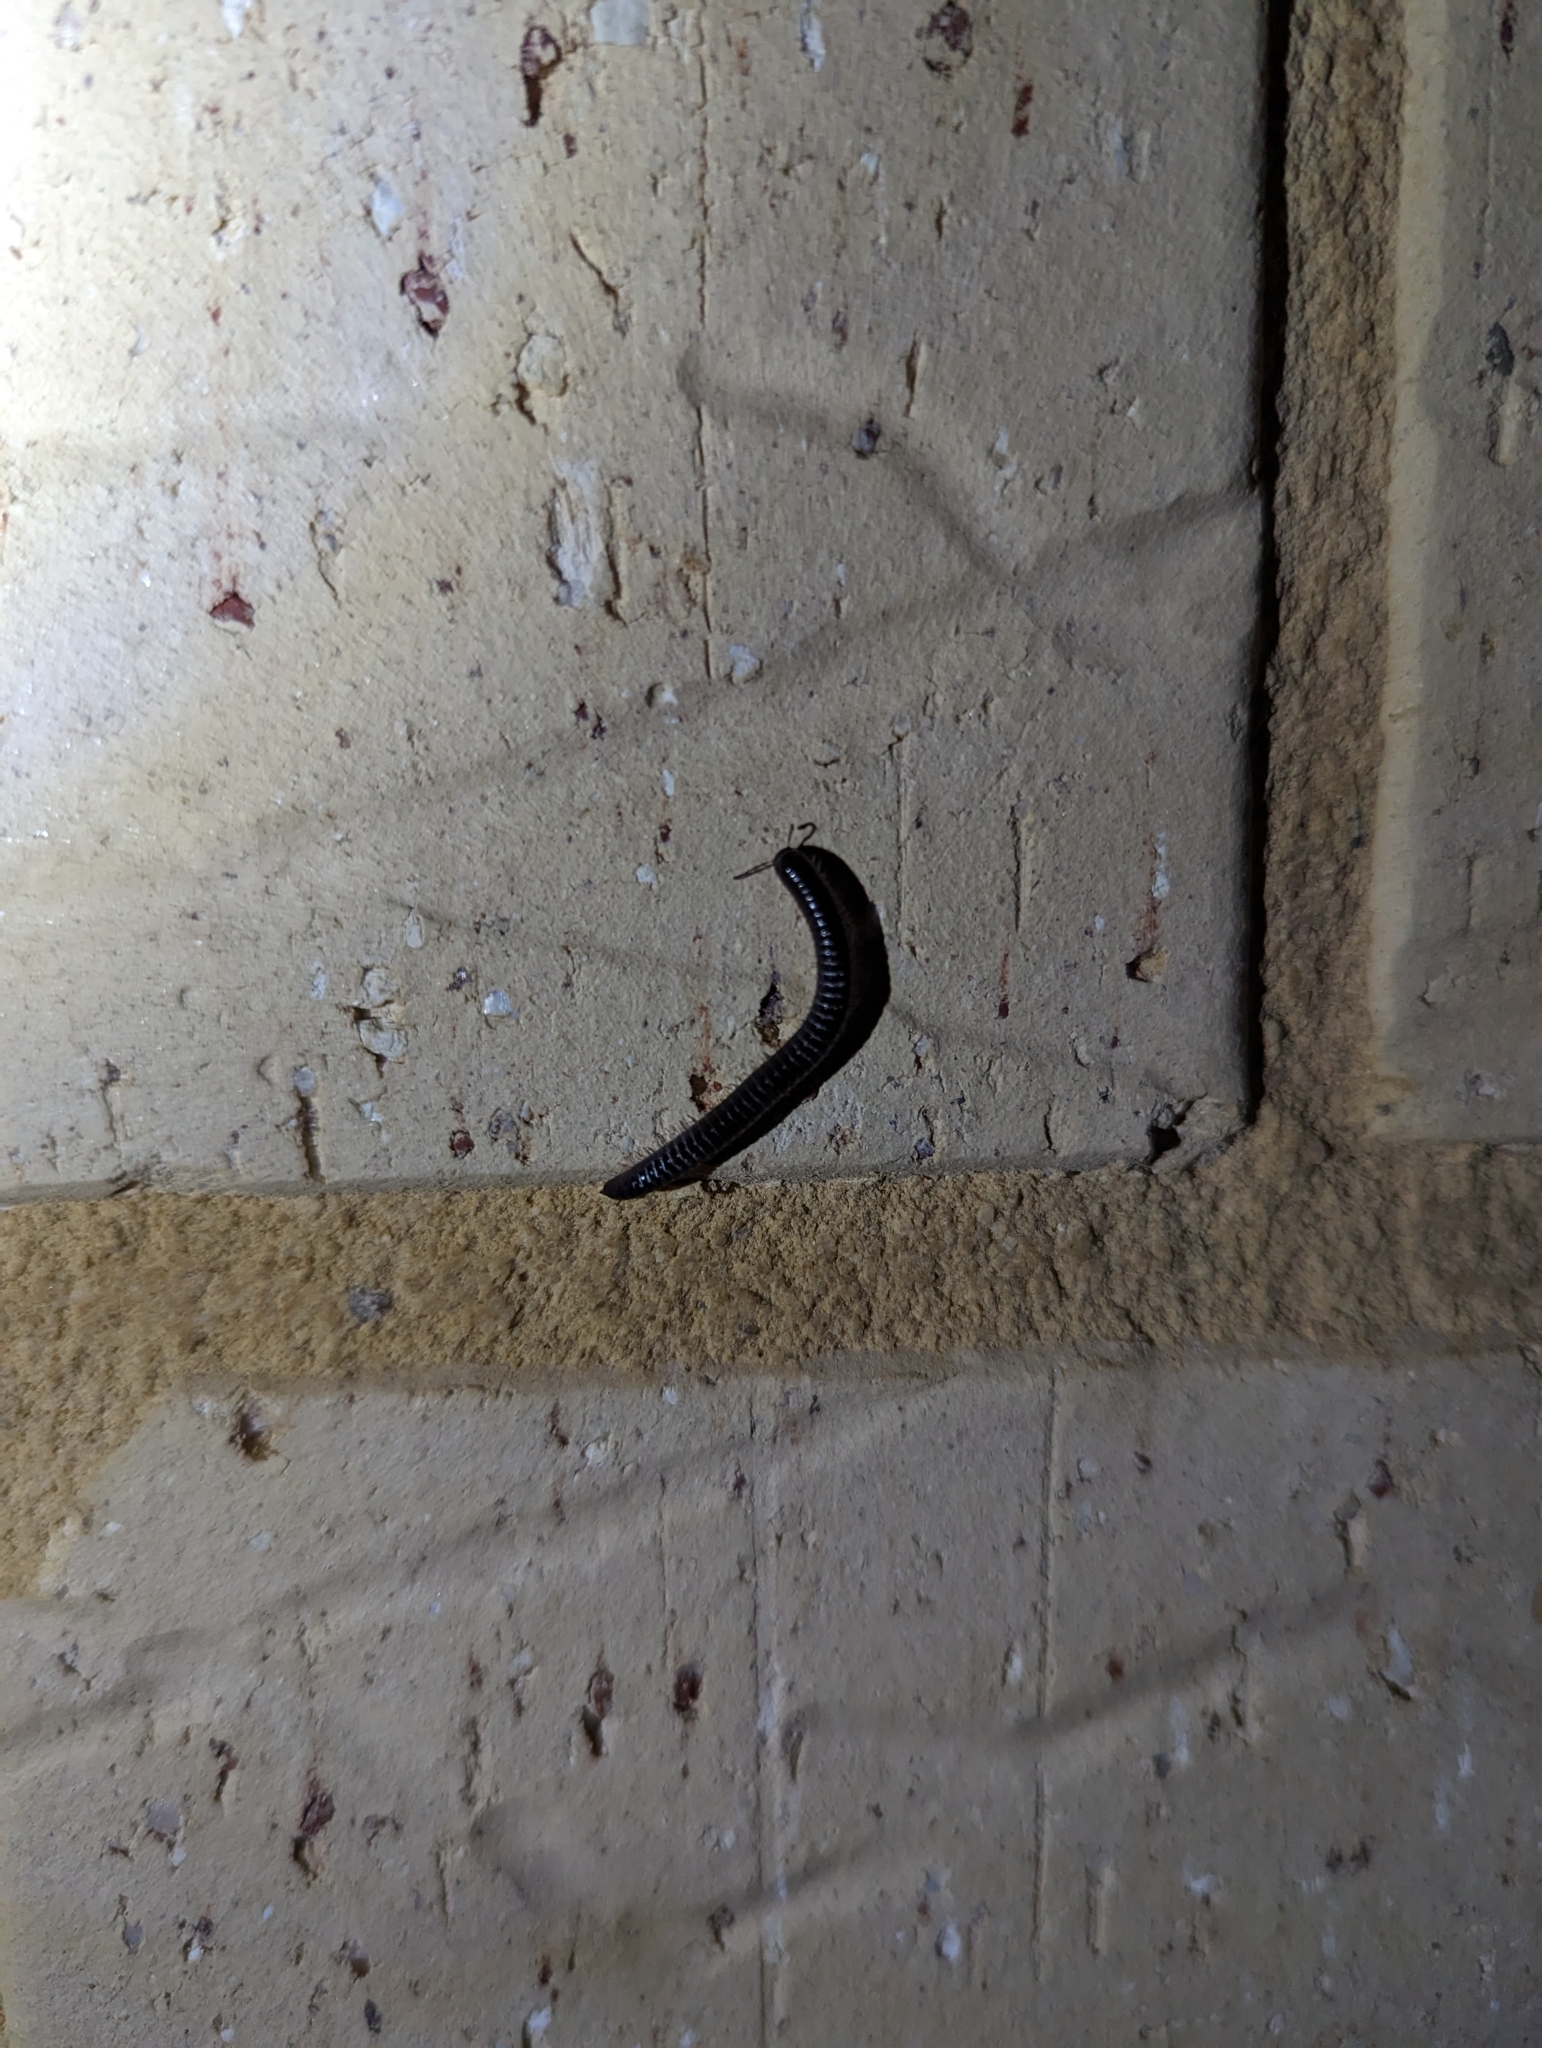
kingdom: Animalia
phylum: Arthropoda
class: Diplopoda
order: Julida
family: Julidae
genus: Ommatoiulus
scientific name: Ommatoiulus moreleti
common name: Portuguese millipede
